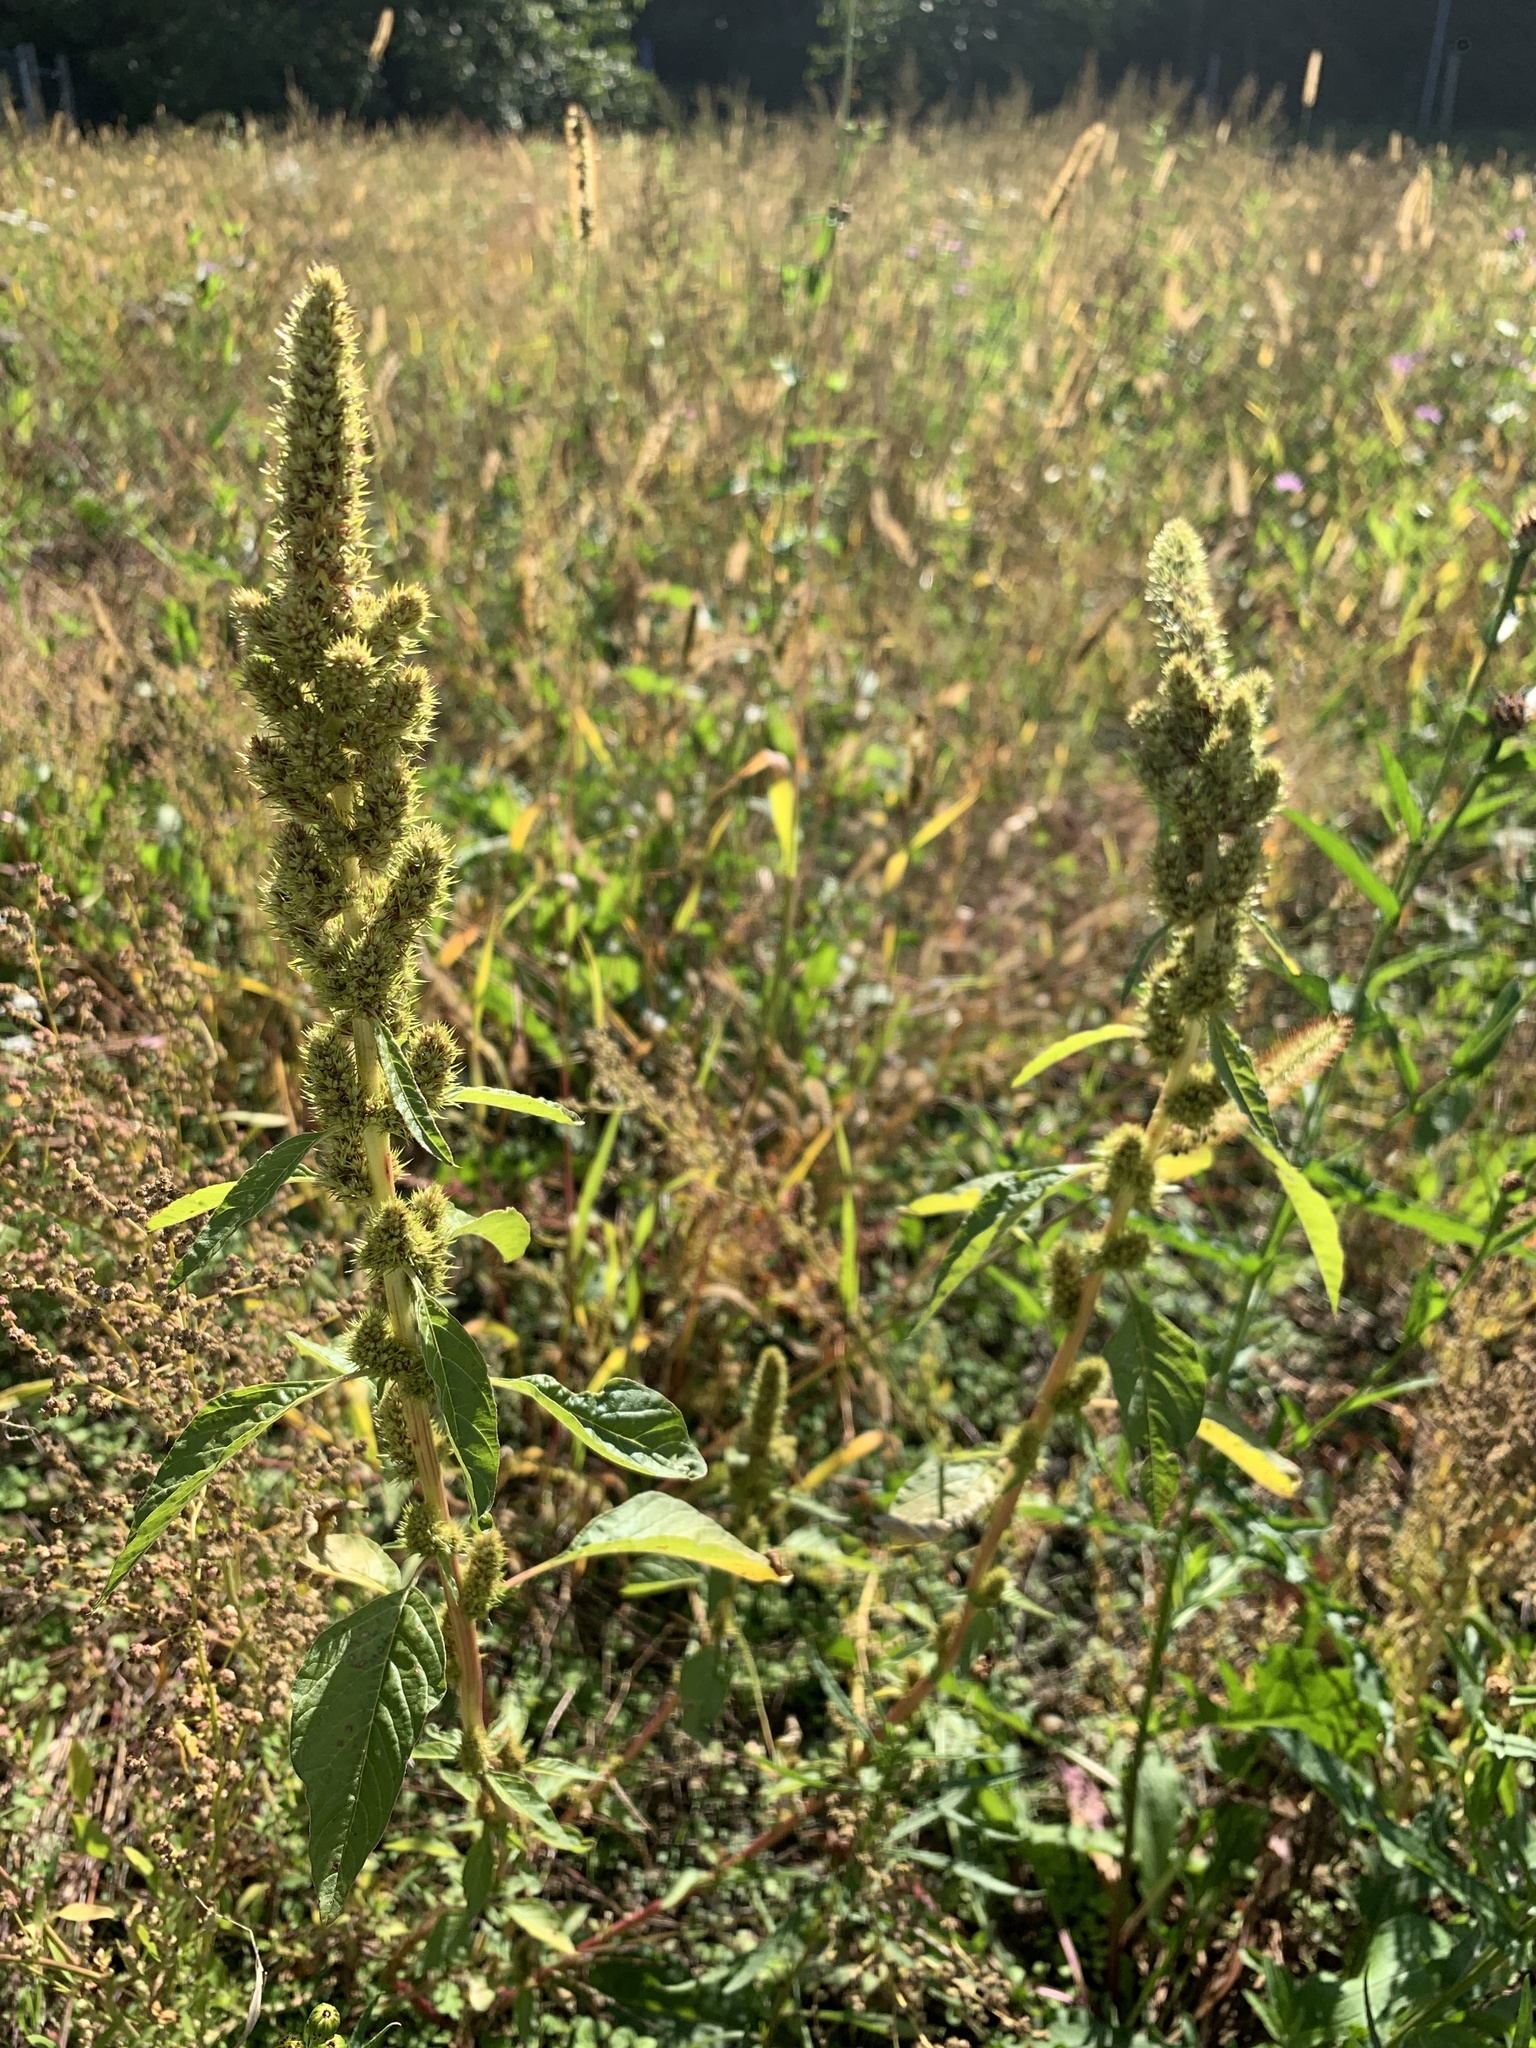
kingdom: Plantae
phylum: Tracheophyta
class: Magnoliopsida
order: Caryophyllales
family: Amaranthaceae
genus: Amaranthus
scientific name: Amaranthus retroflexus
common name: Redroot amaranth
